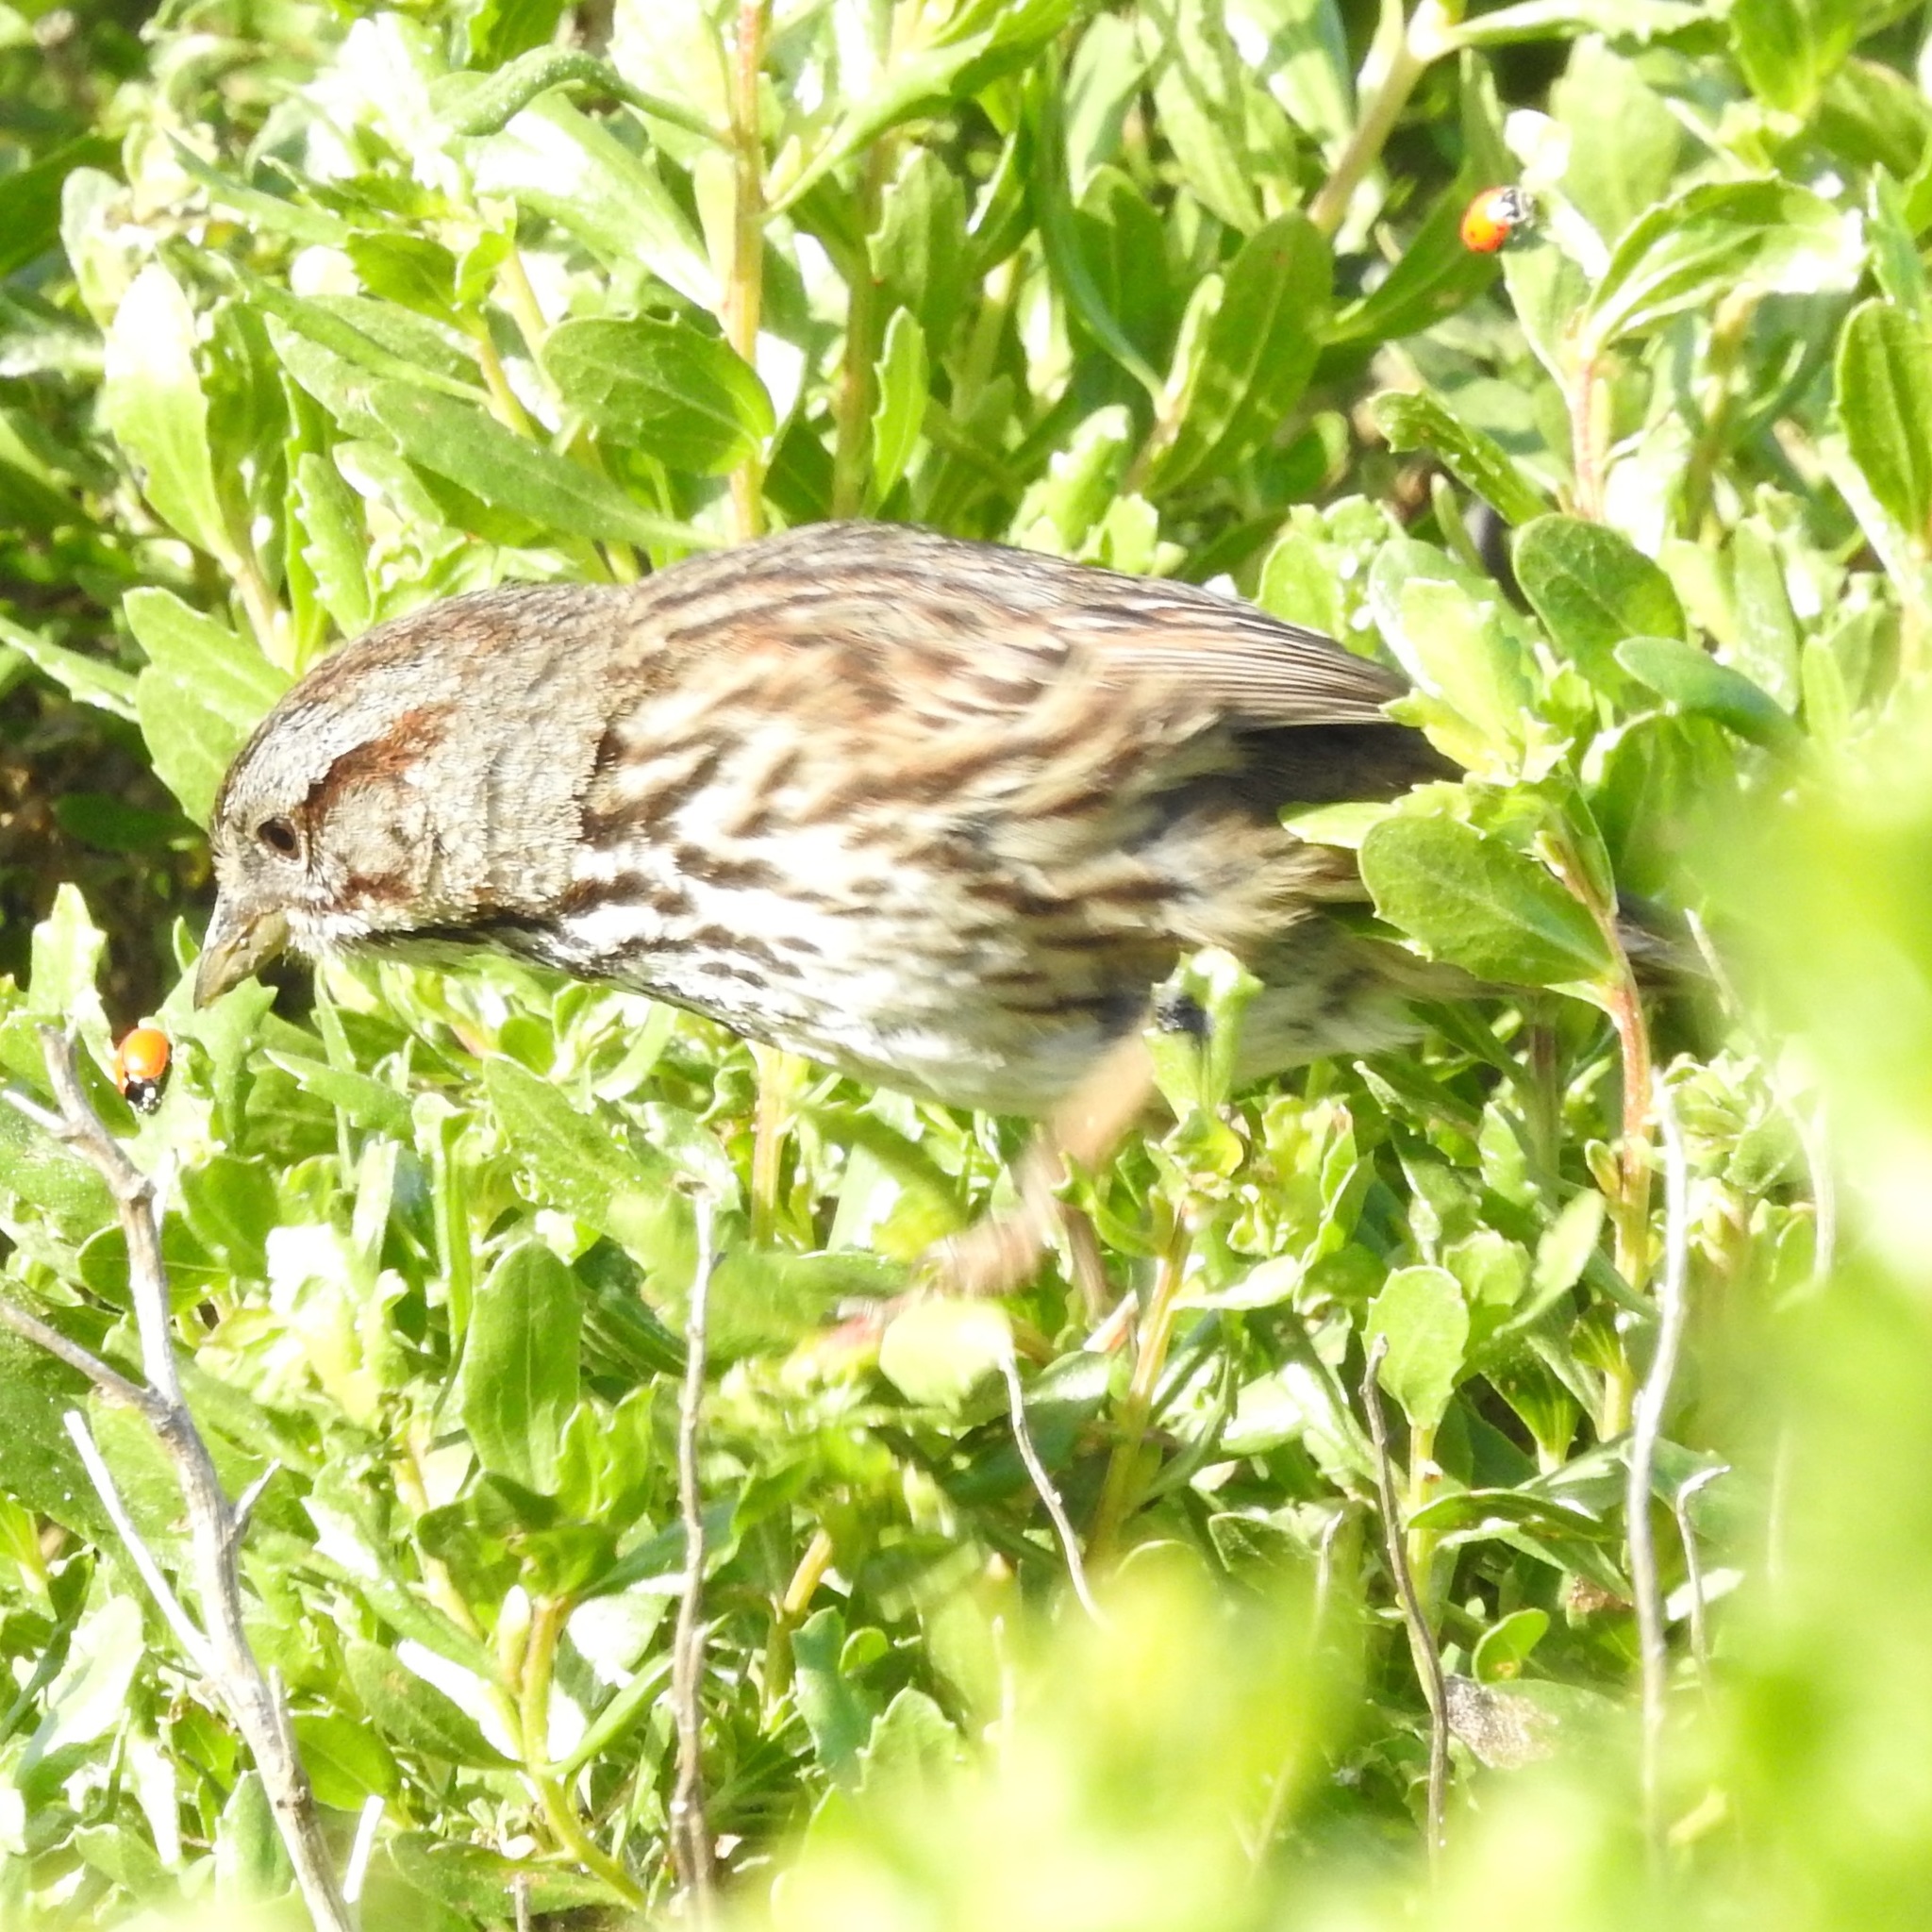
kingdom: Animalia
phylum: Chordata
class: Aves
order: Passeriformes
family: Passerellidae
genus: Melospiza
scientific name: Melospiza melodia
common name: Song sparrow
